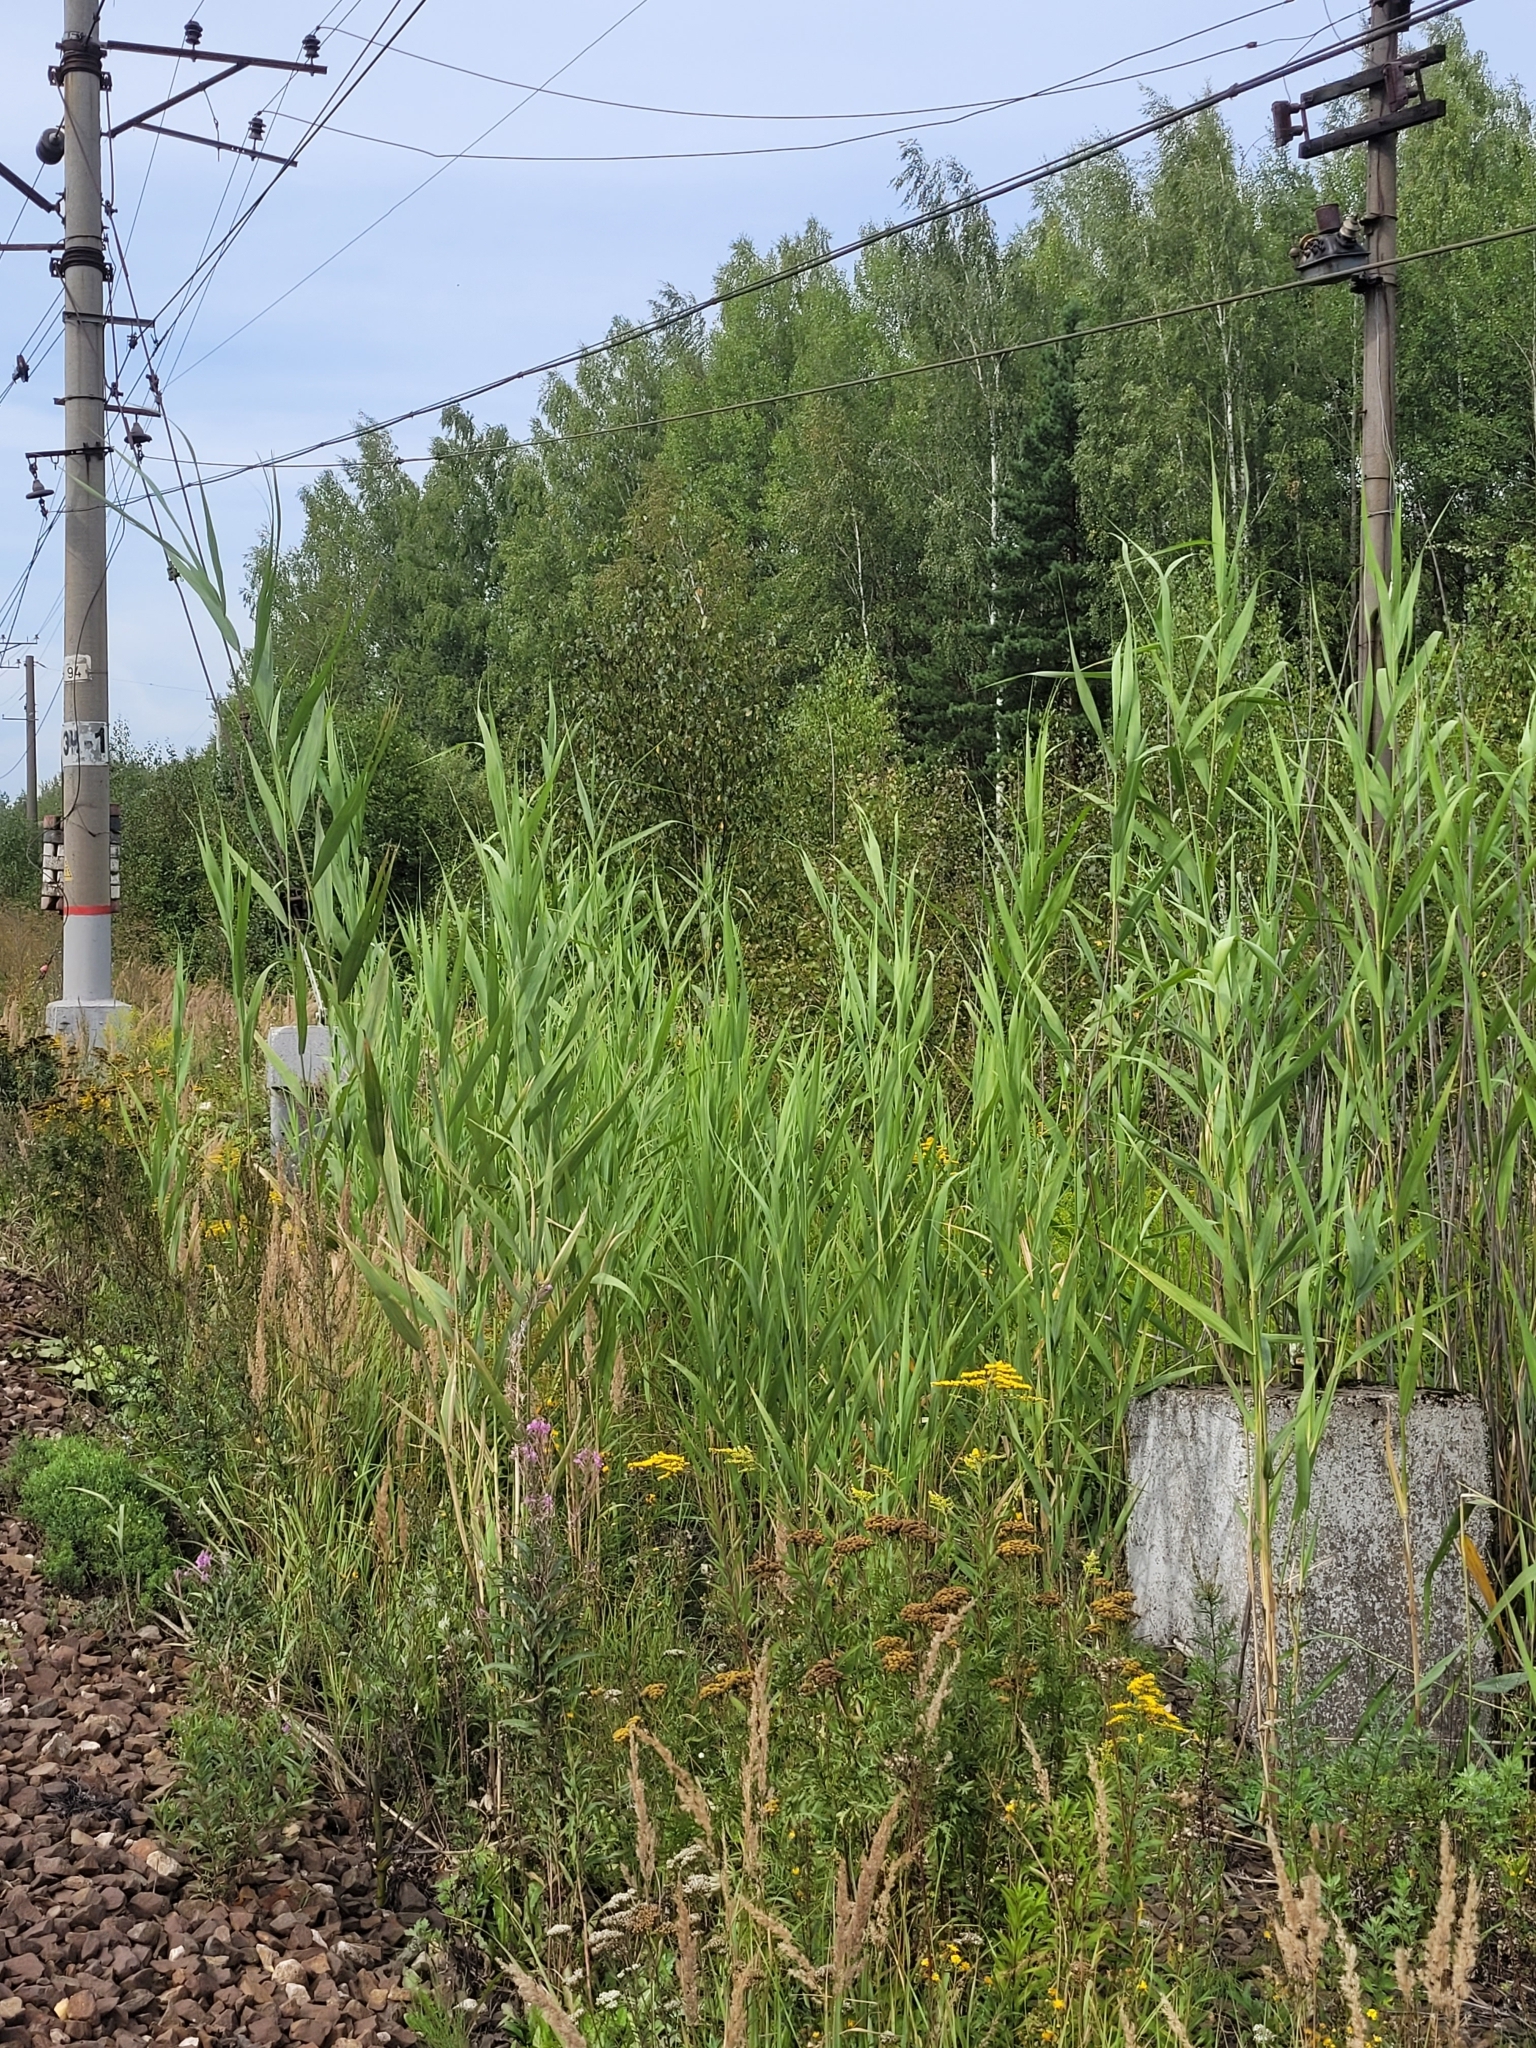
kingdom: Plantae
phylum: Tracheophyta
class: Liliopsida
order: Poales
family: Poaceae
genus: Phragmites
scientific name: Phragmites australis
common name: Common reed
